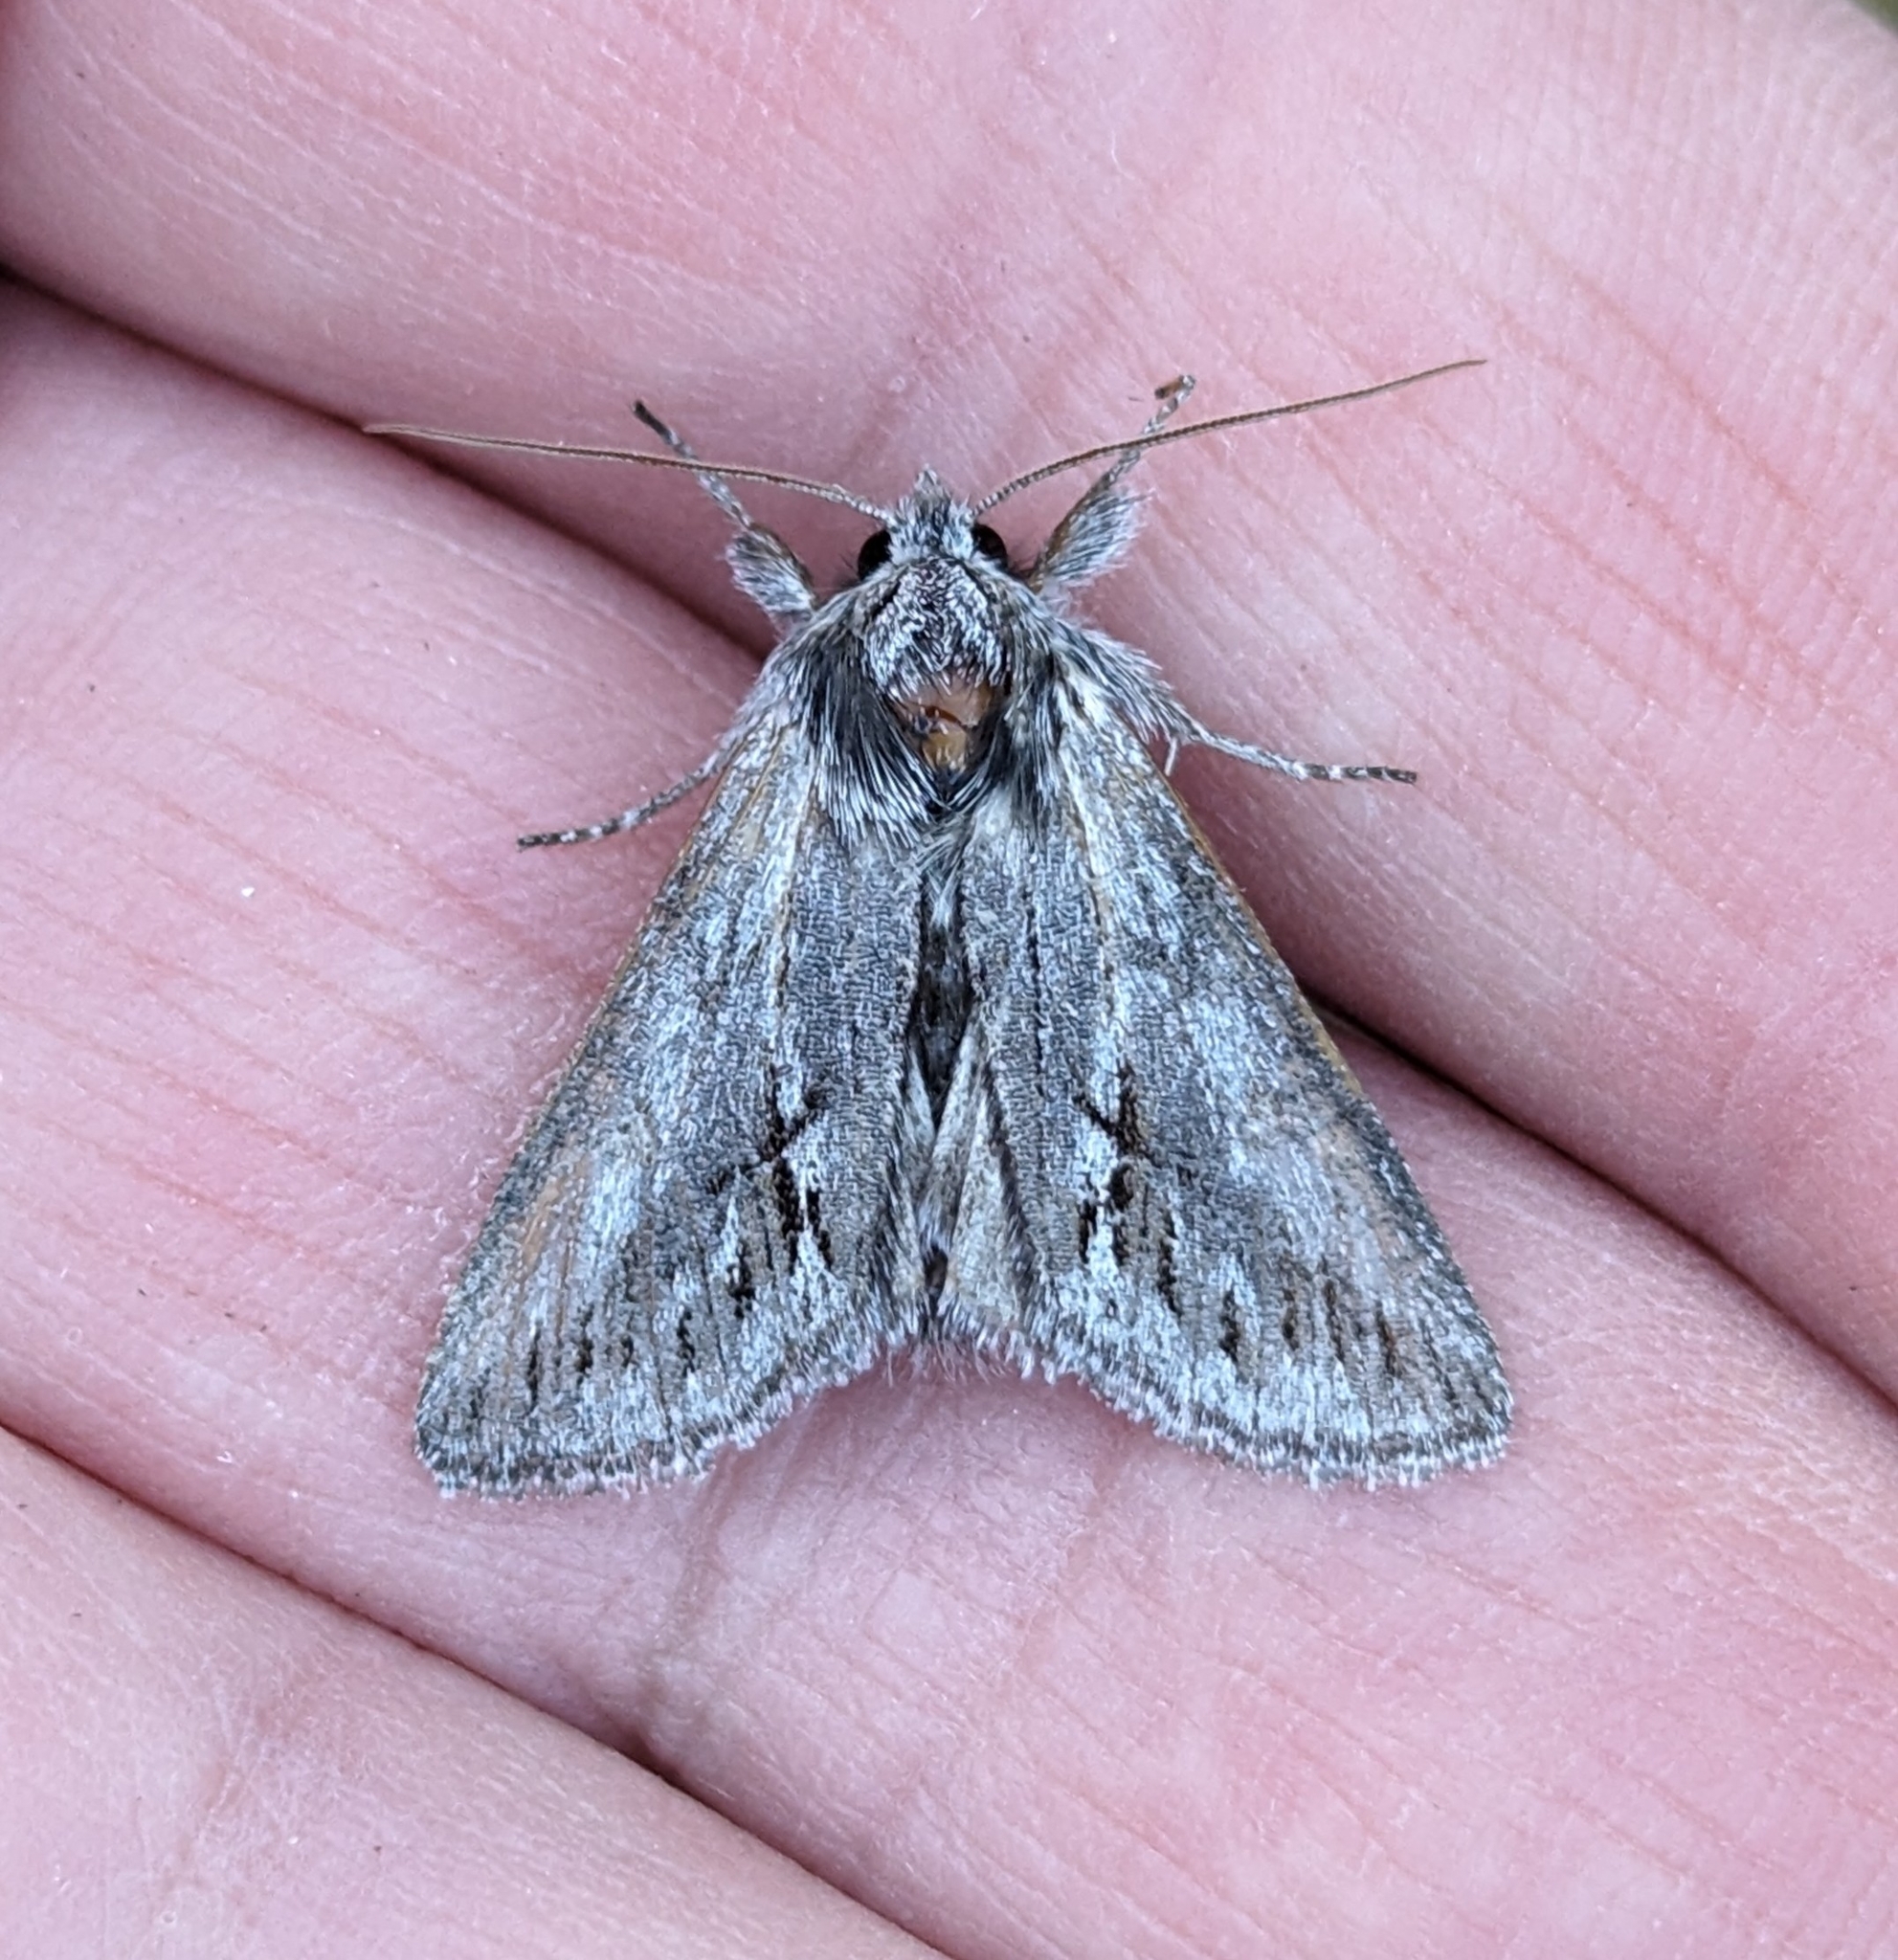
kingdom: Animalia
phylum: Arthropoda
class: Insecta
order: Lepidoptera
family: Noctuidae
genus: Pleromelloida
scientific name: Pleromelloida cinerea
